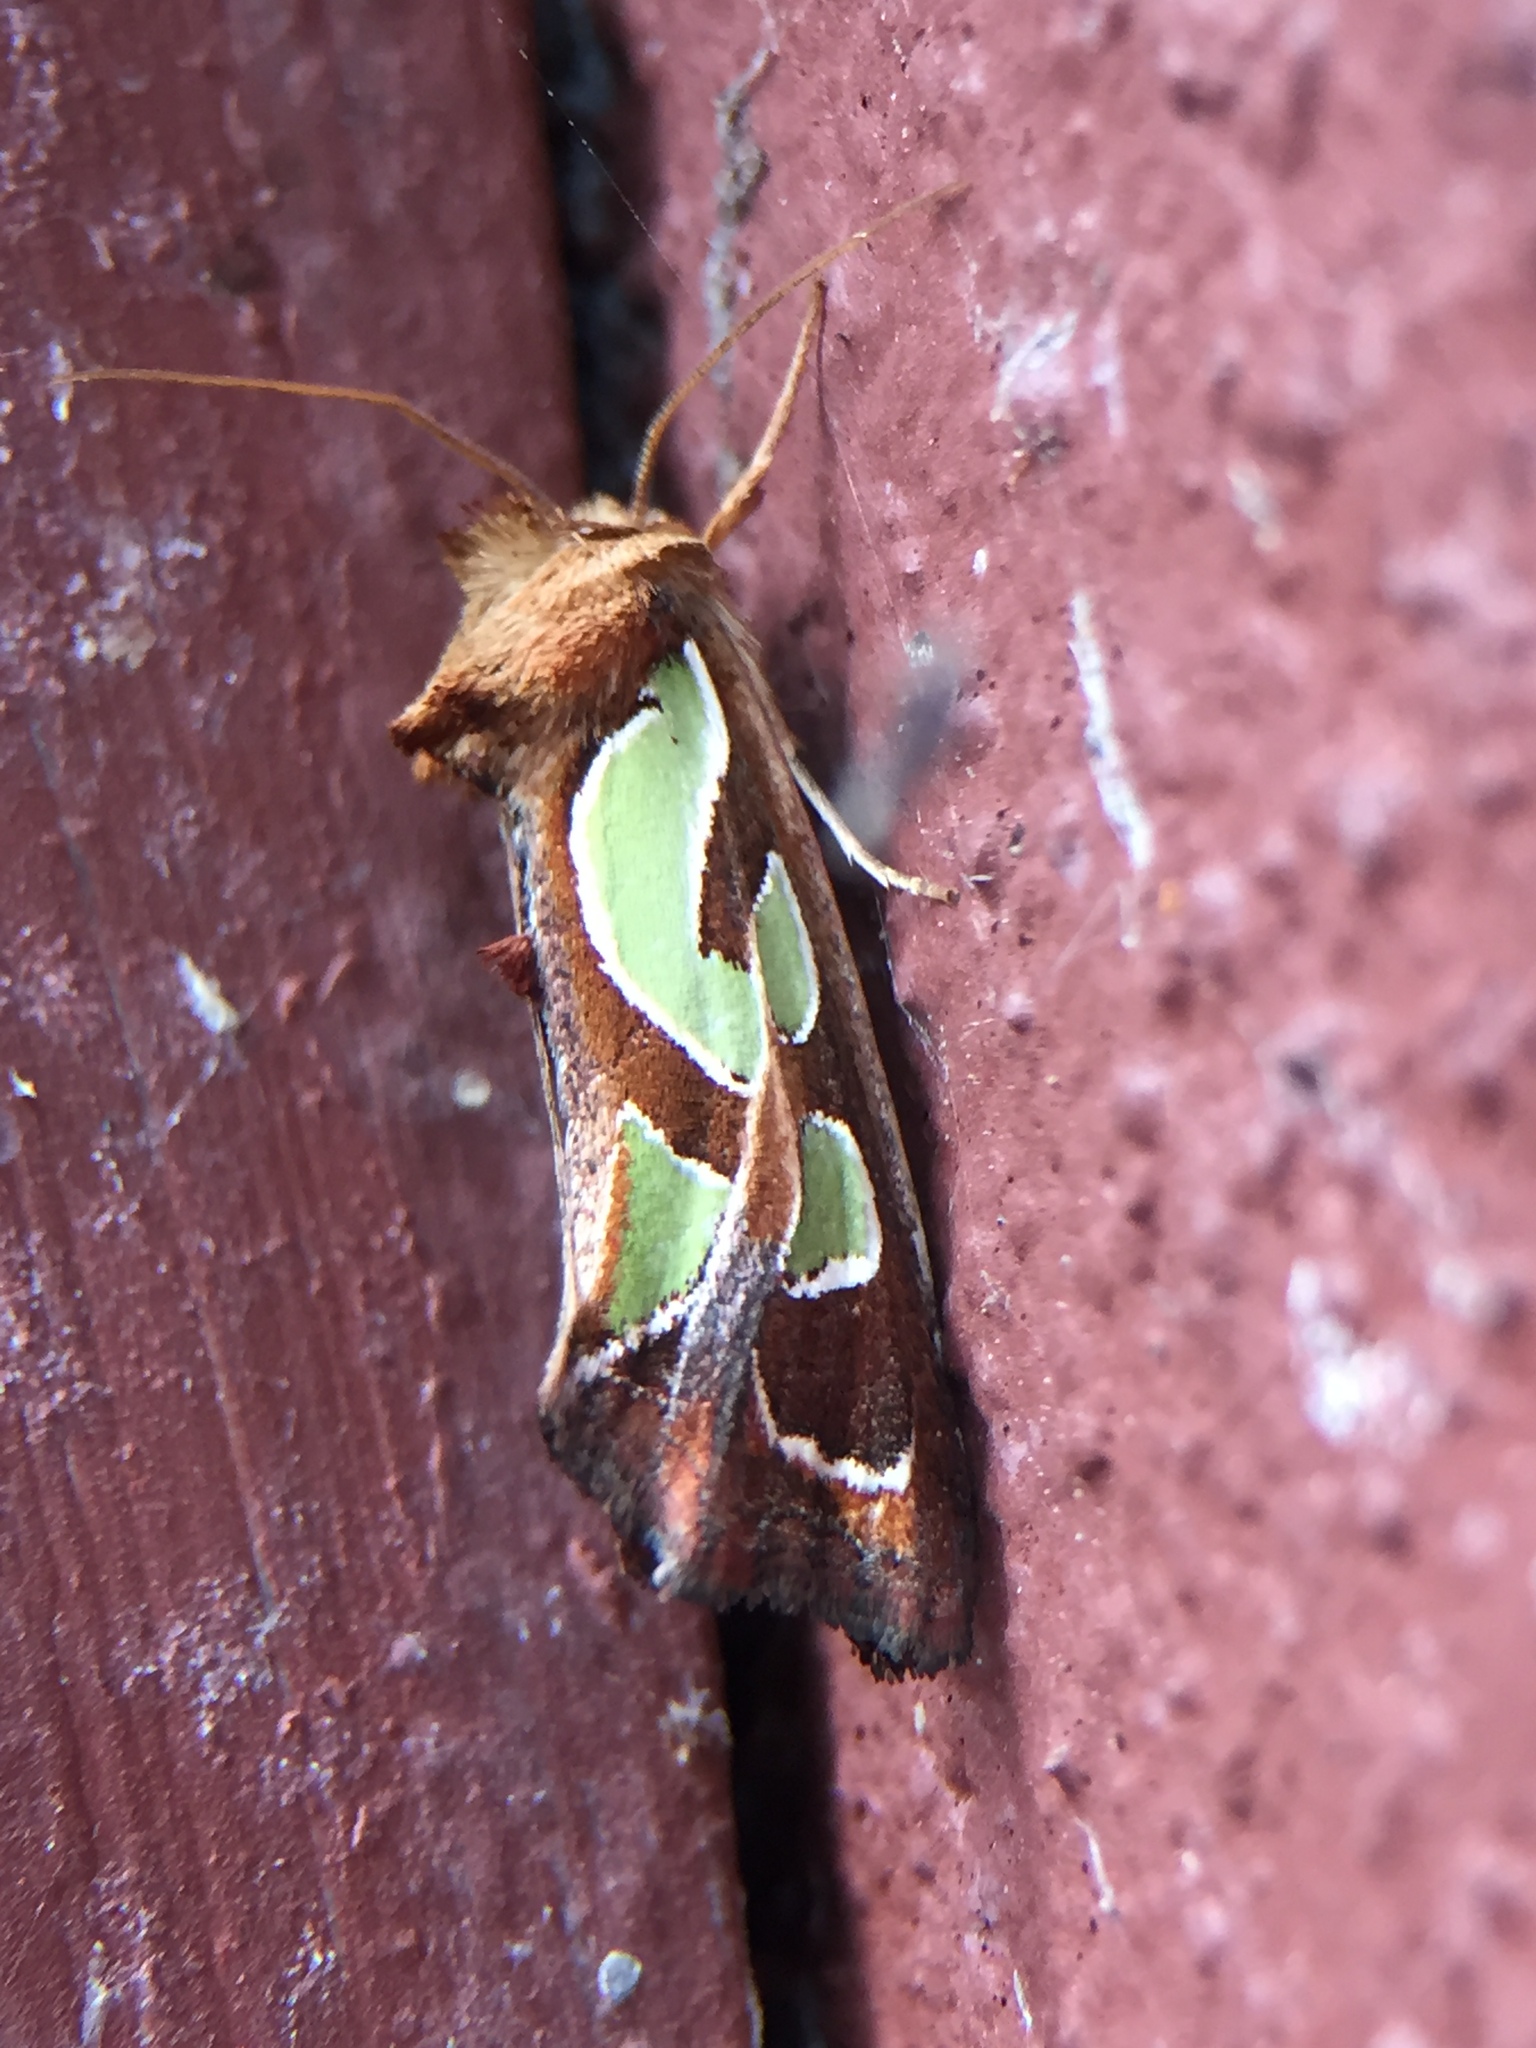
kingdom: Animalia
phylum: Arthropoda
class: Insecta
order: Lepidoptera
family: Noctuidae
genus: Cosmodes
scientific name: Cosmodes elegans
